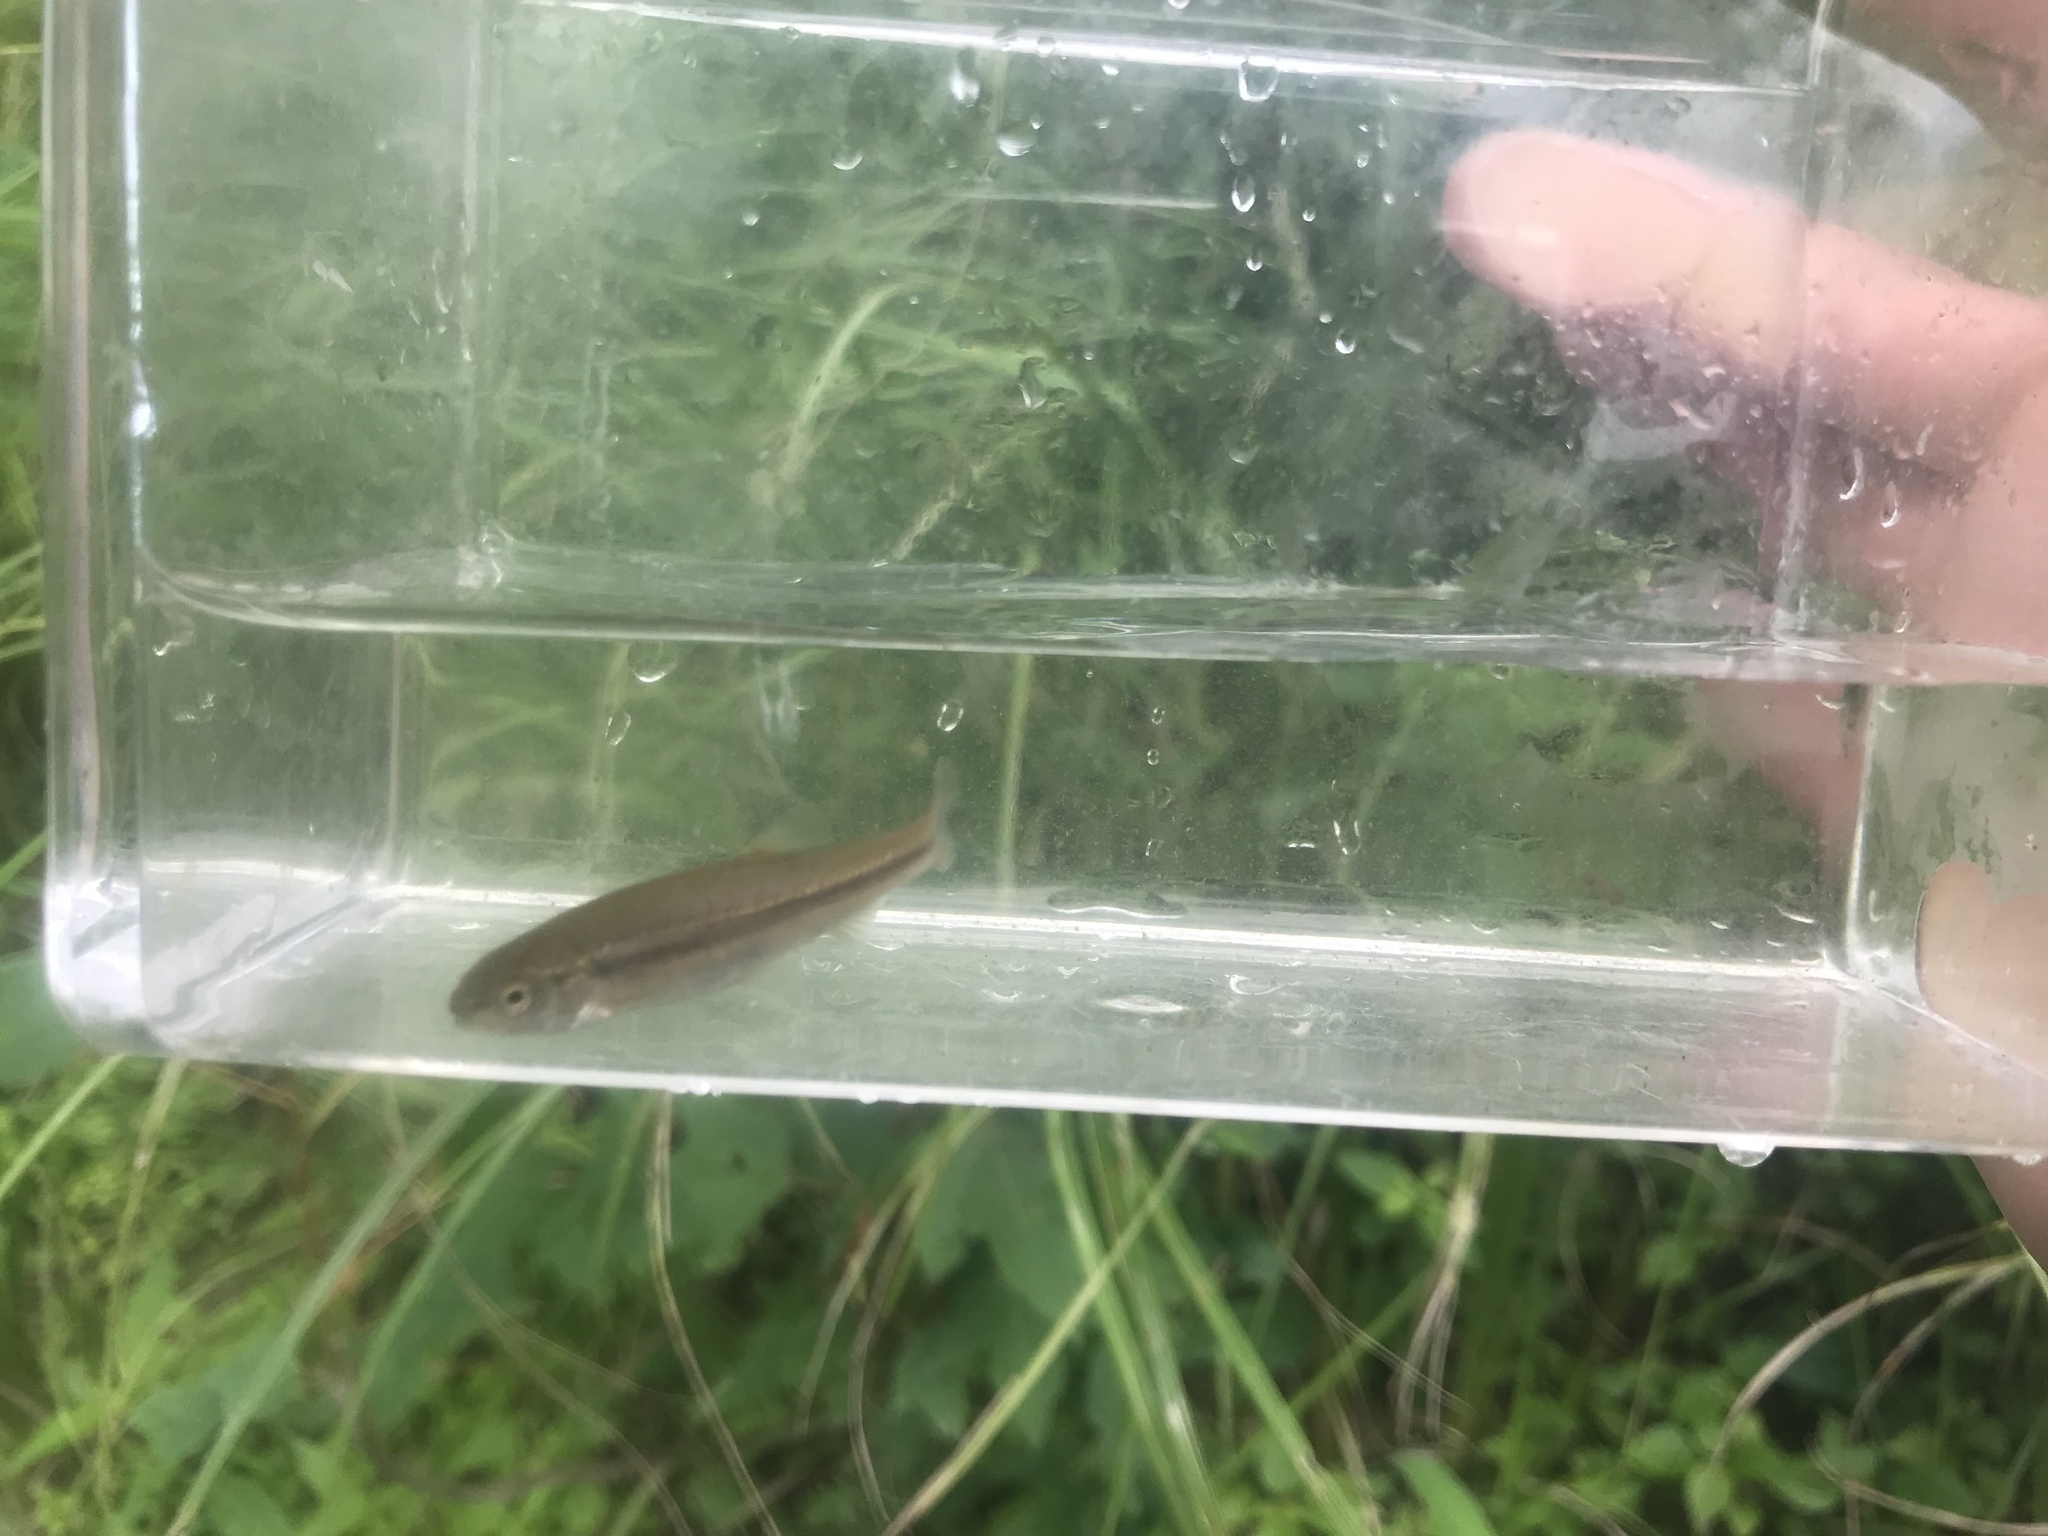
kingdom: Animalia
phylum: Chordata
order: Cypriniformes
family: Cyprinidae
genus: Semotilus
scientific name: Semotilus atromaculatus
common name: Creek chub
